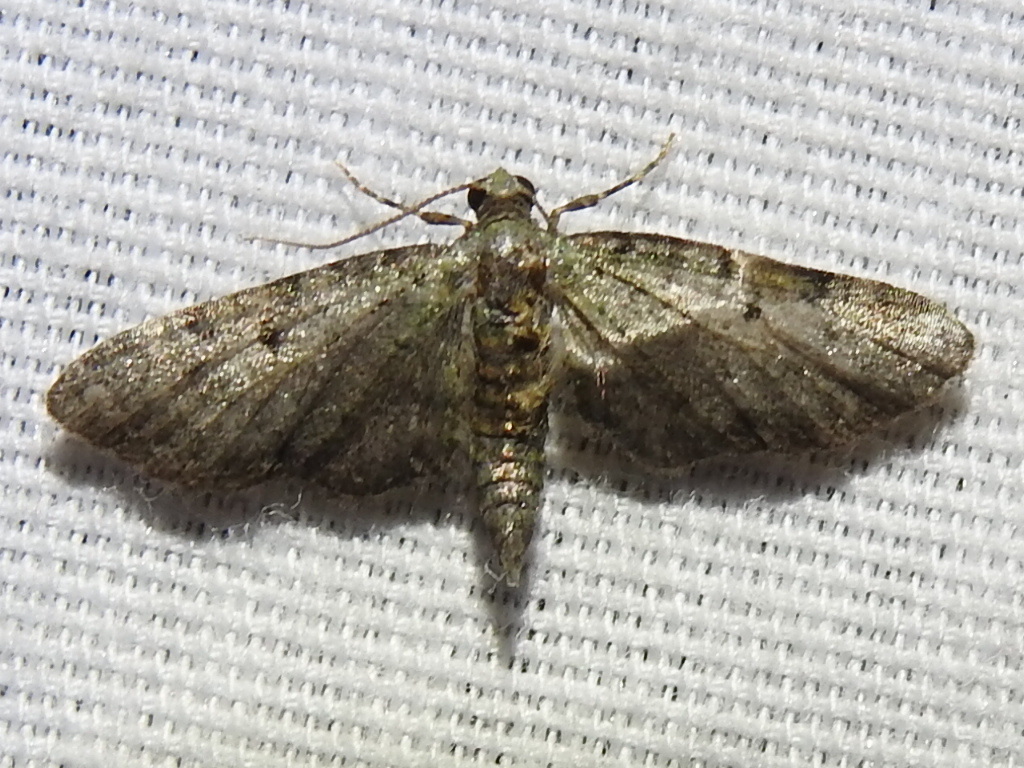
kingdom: Animalia
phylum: Arthropoda
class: Insecta
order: Lepidoptera
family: Geometridae
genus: Eupithecia
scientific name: Eupithecia miserulata
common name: Common eupithecia
